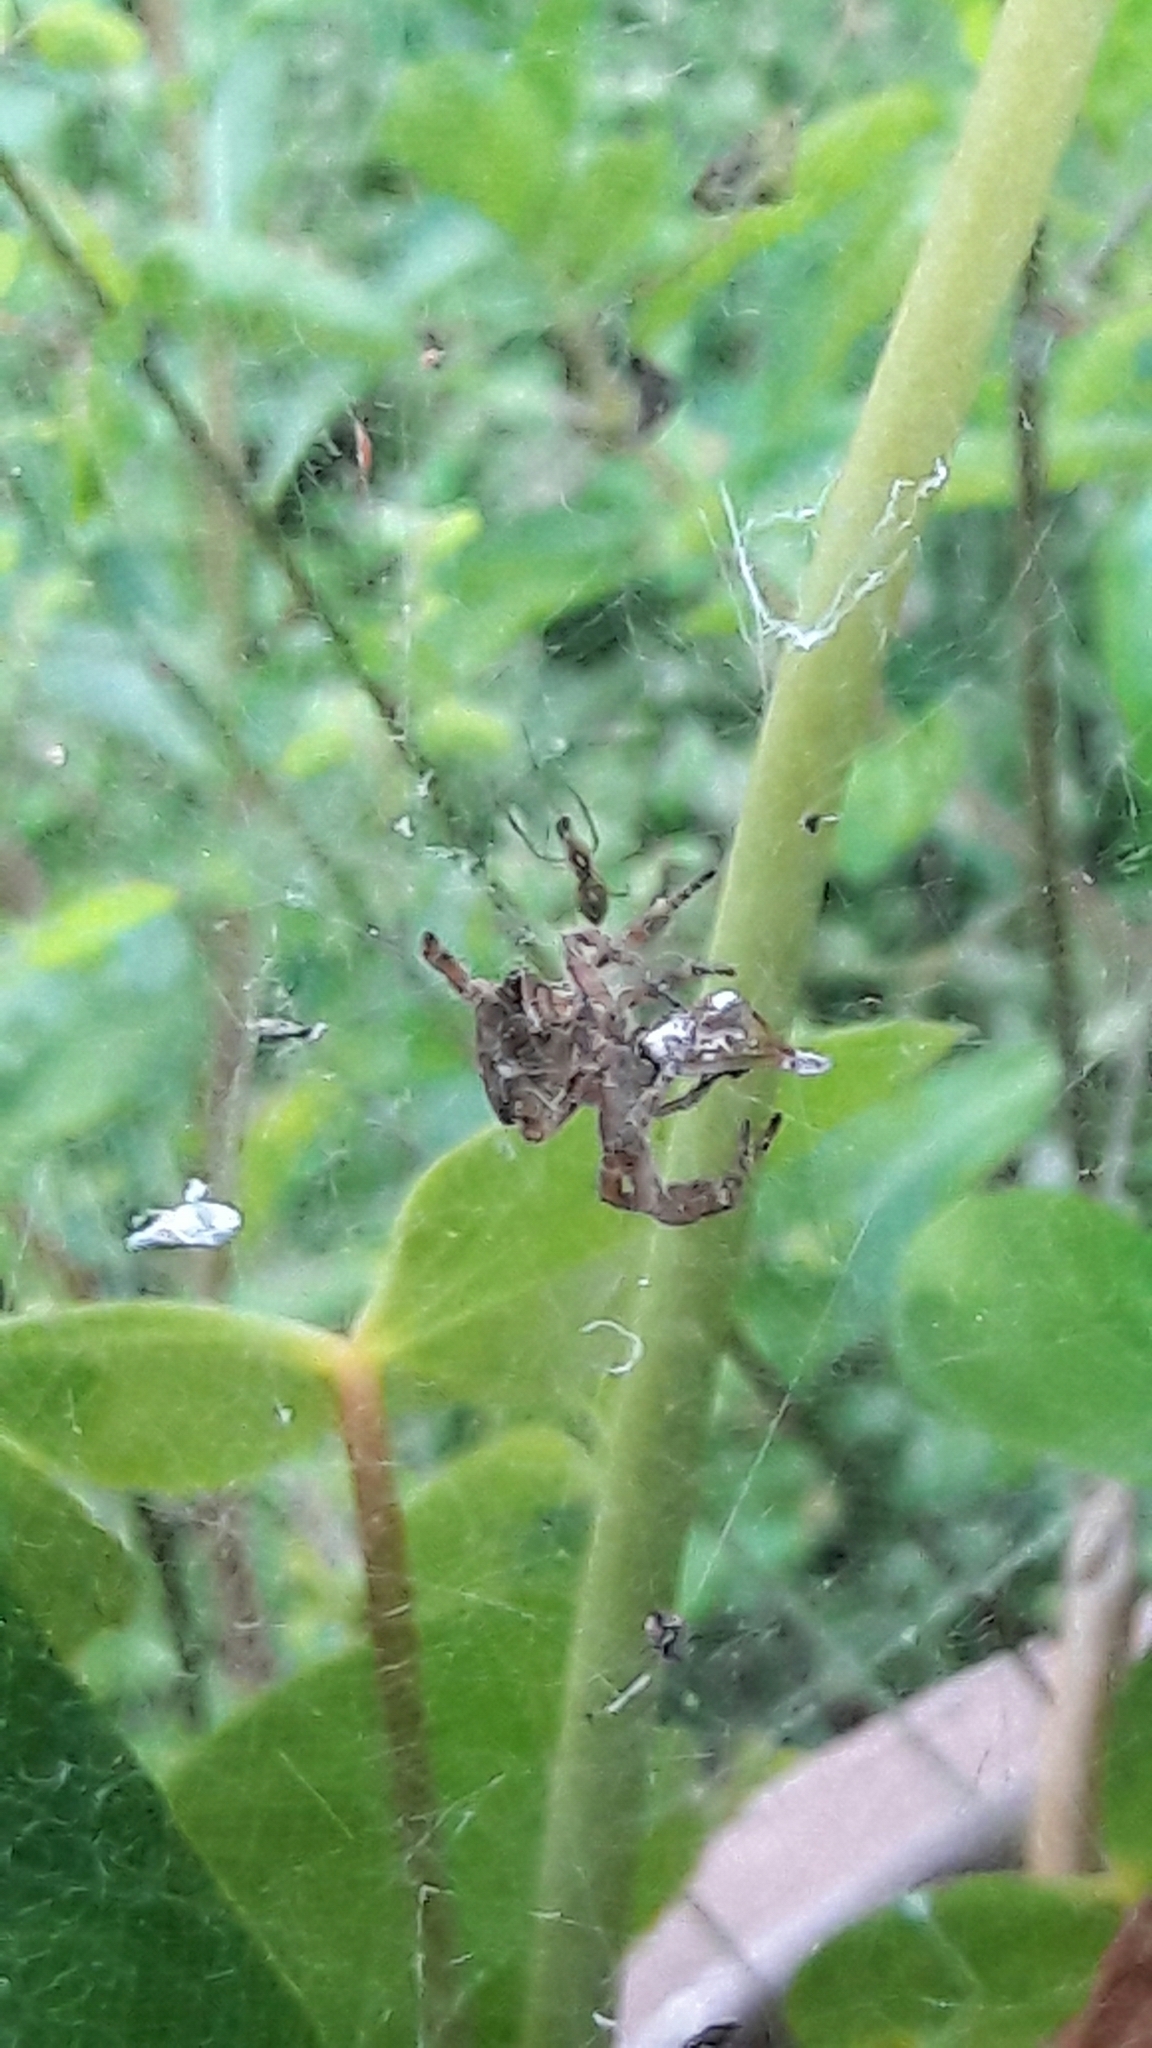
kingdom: Animalia
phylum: Arthropoda
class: Arachnida
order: Araneae
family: Araneidae
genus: Cyrtophora
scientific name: Cyrtophora citricola
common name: Orb weavers
